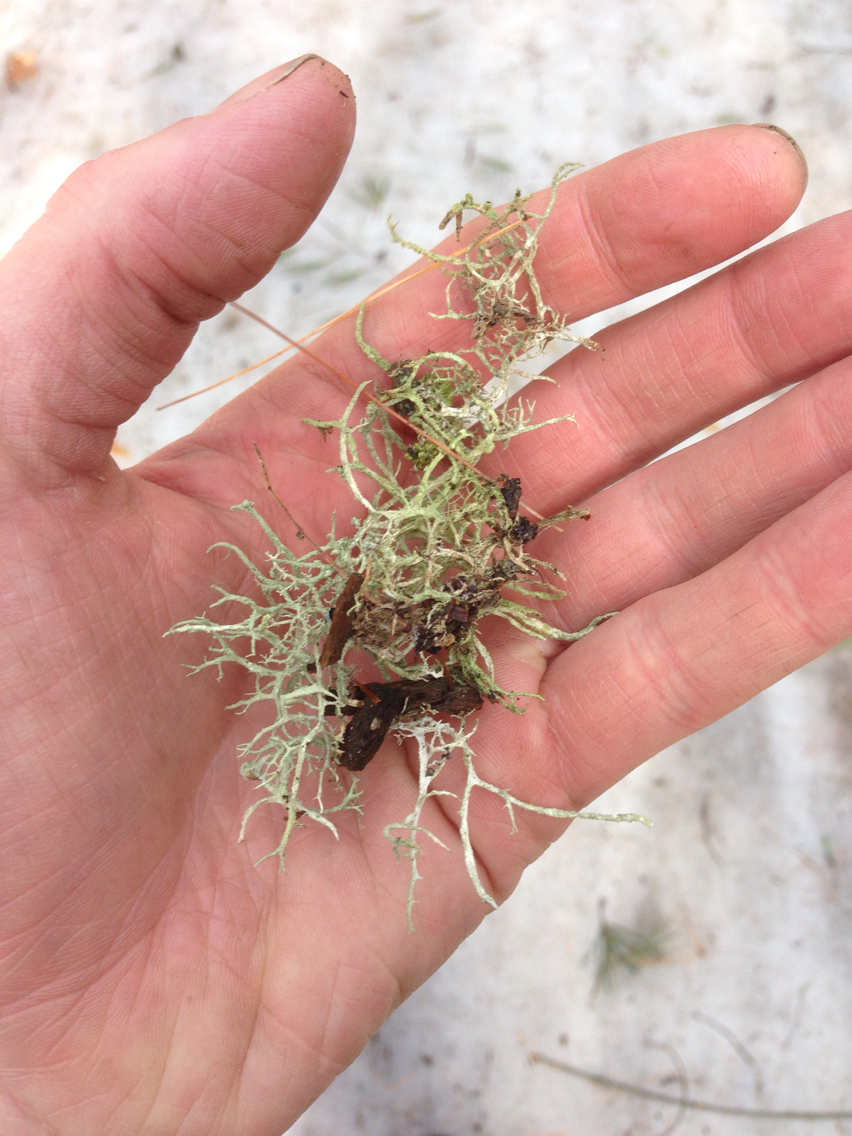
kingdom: Fungi
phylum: Ascomycota
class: Lecanoromycetes
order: Lecanorales
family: Parmeliaceae
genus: Evernia
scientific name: Evernia mesomorpha
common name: Boreal oak moss lichen
